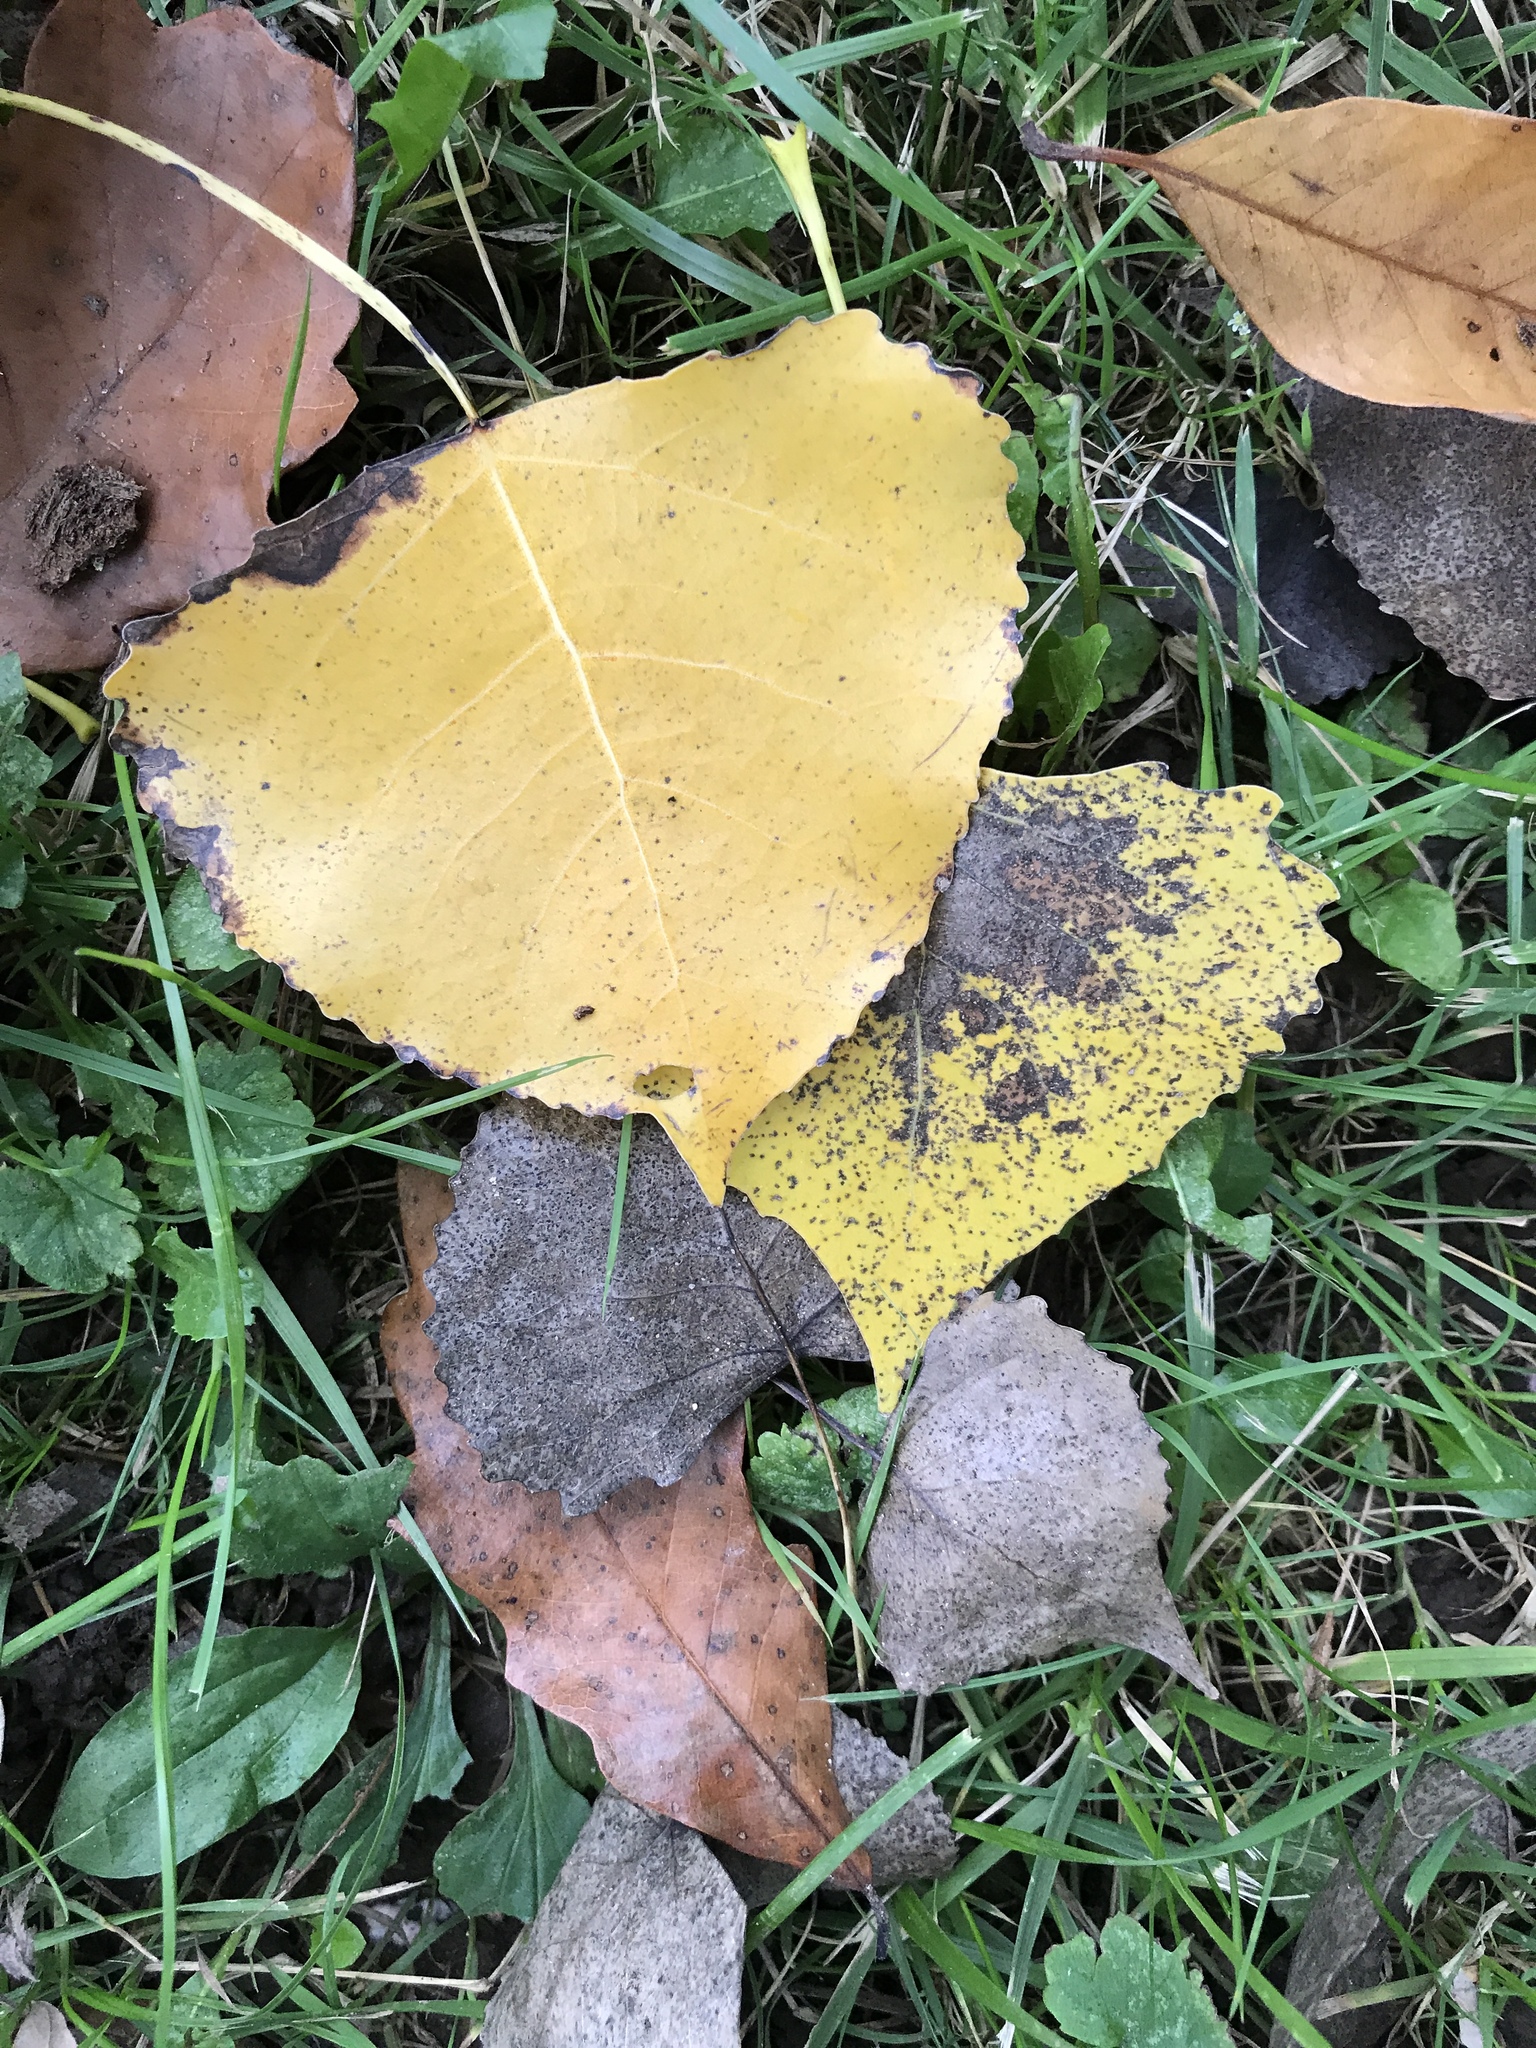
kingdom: Plantae
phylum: Tracheophyta
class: Magnoliopsida
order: Malpighiales
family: Salicaceae
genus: Populus
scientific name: Populus deltoides
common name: Eastern cottonwood
